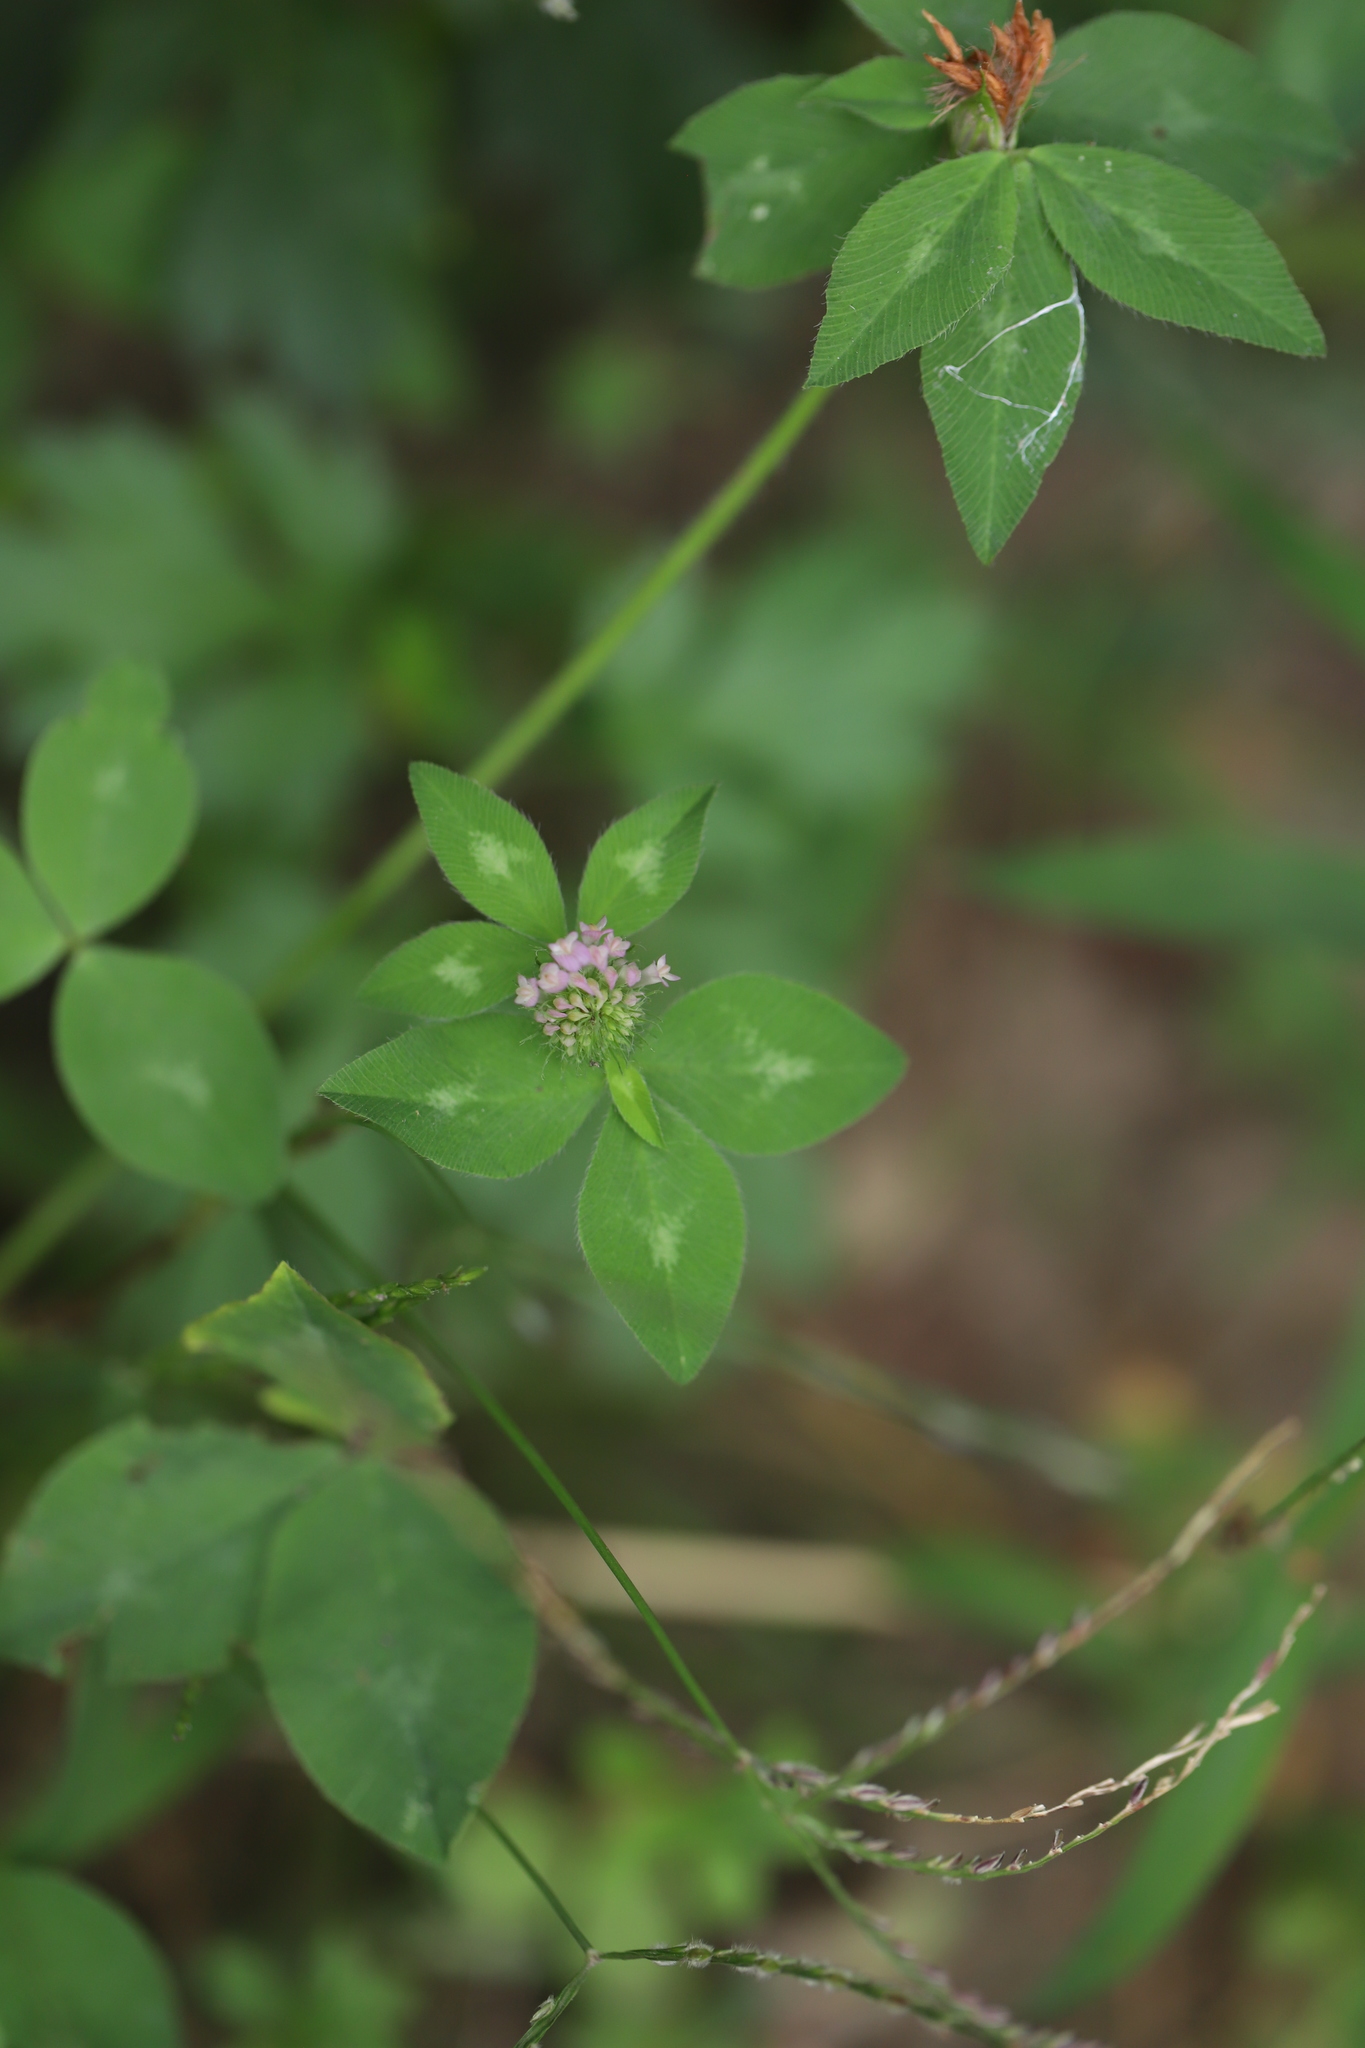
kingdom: Plantae
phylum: Tracheophyta
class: Magnoliopsida
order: Fabales
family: Fabaceae
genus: Trifolium
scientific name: Trifolium pratense
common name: Red clover
